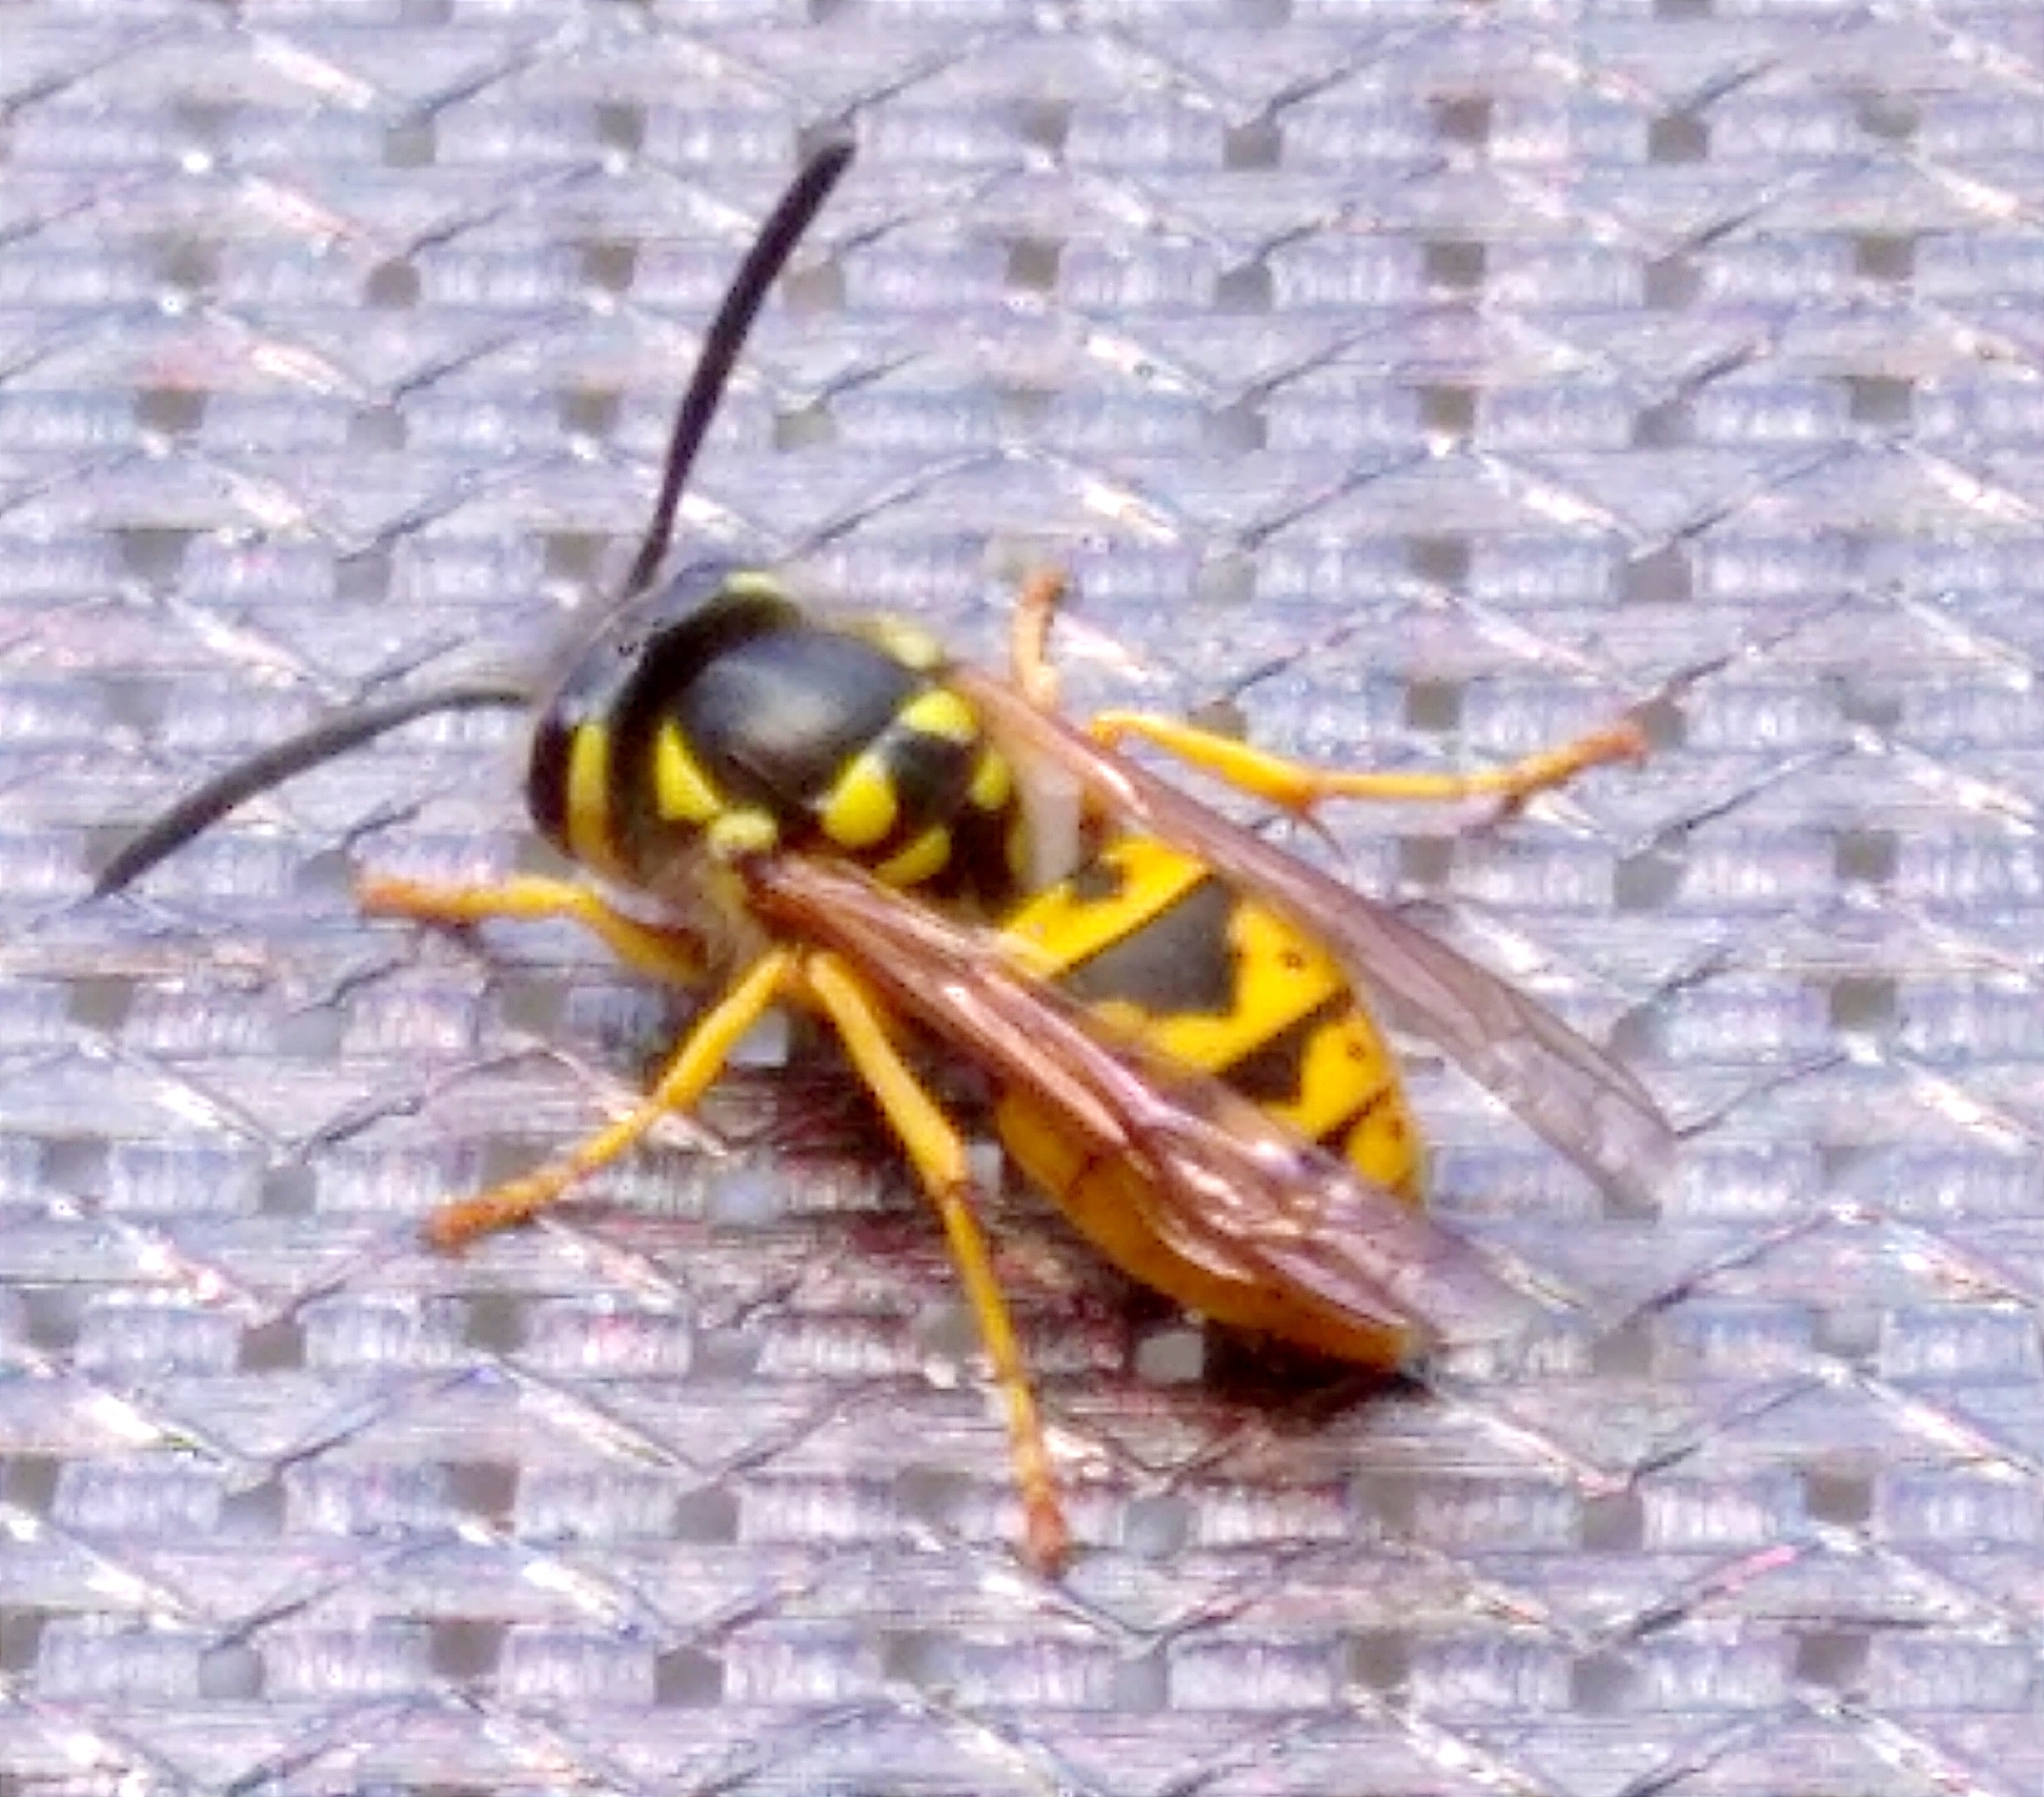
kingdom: Animalia
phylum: Arthropoda
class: Insecta
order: Hymenoptera
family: Vespidae
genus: Vespula
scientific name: Vespula germanica
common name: German wasp
